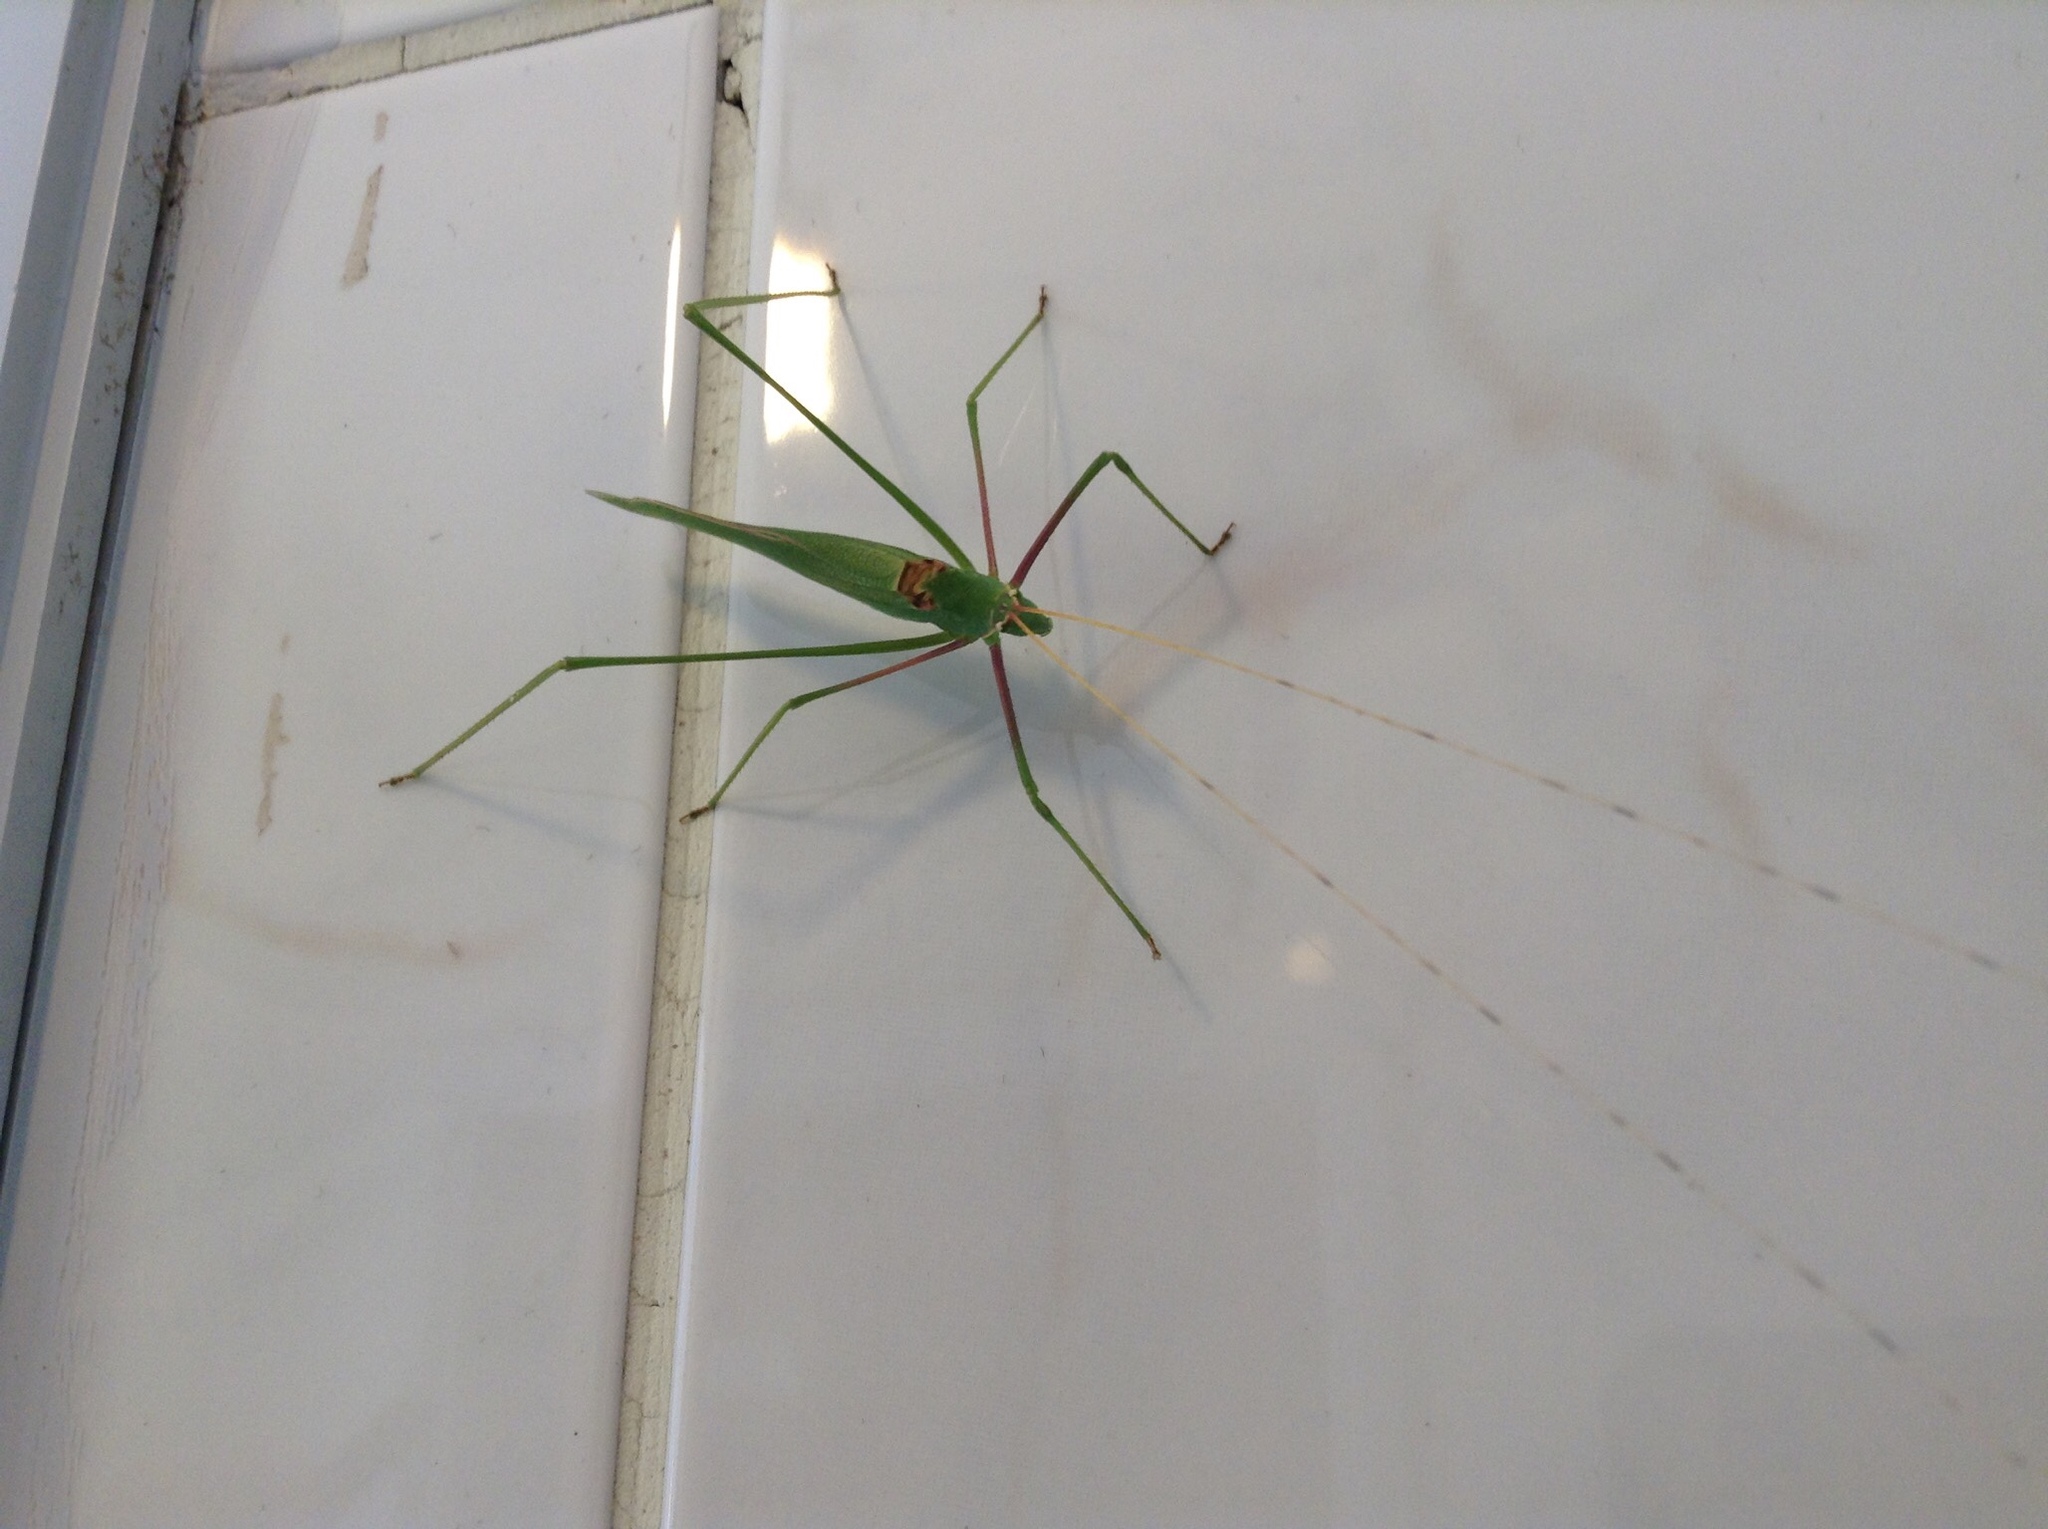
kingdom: Animalia
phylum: Arthropoda
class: Insecta
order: Orthoptera
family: Tettigoniidae
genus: Acrometopa
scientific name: Acrometopa syriaca
